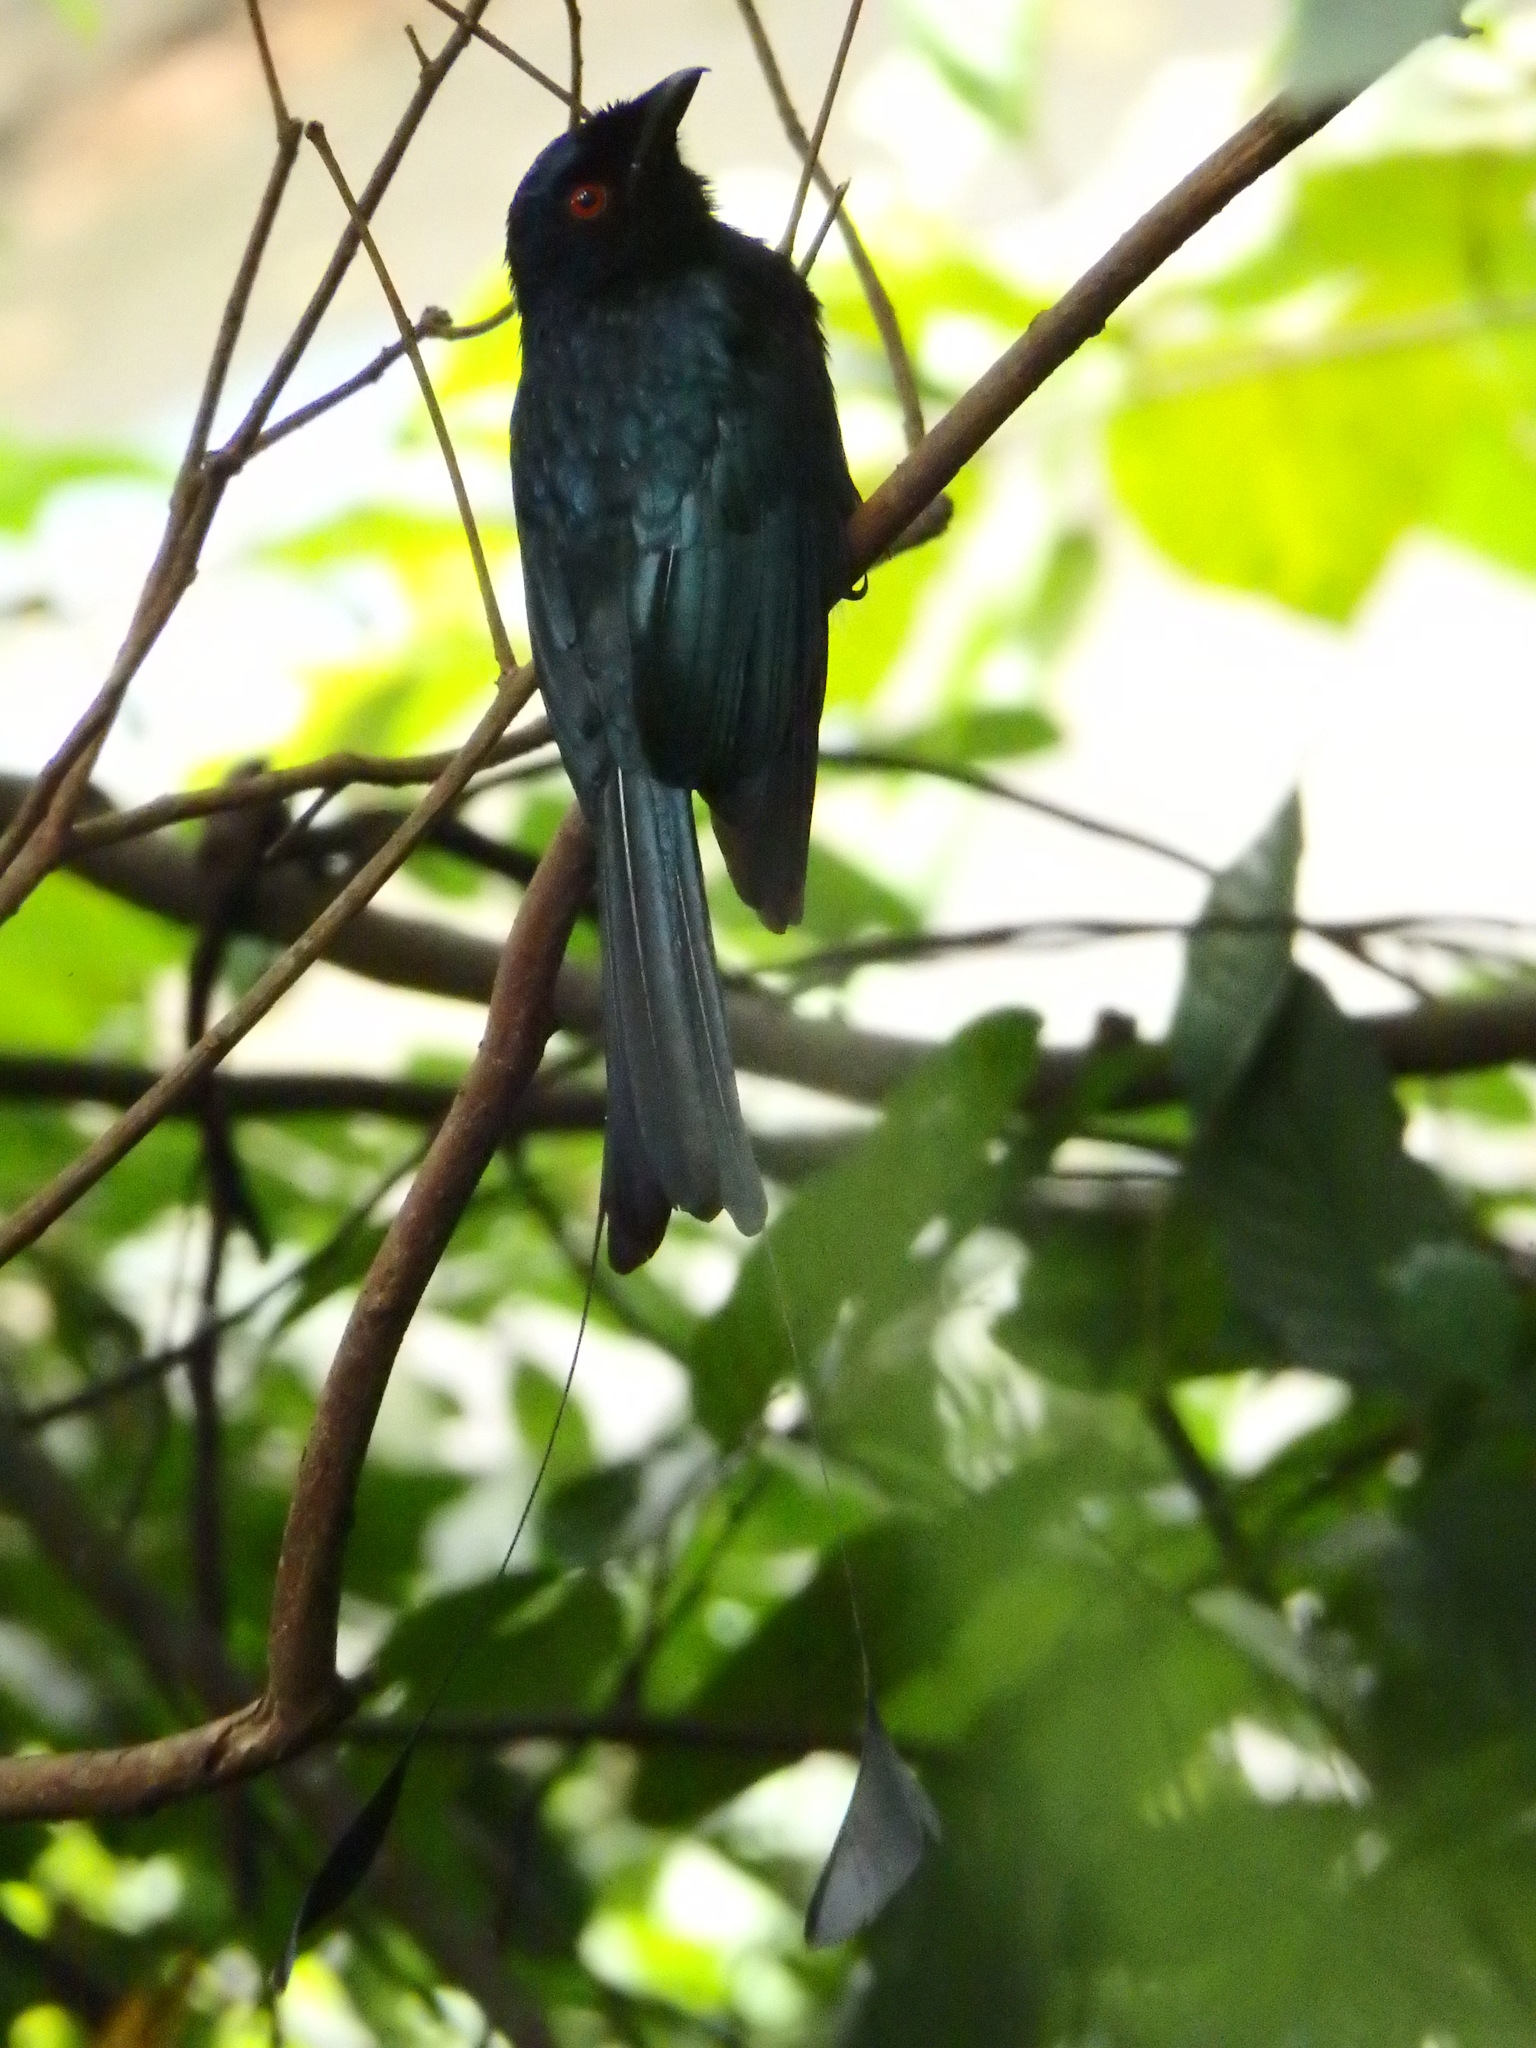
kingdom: Animalia
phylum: Chordata
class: Aves
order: Passeriformes
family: Dicruridae
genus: Dicrurus
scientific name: Dicrurus paradiseus
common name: Greater racket-tailed drongo
